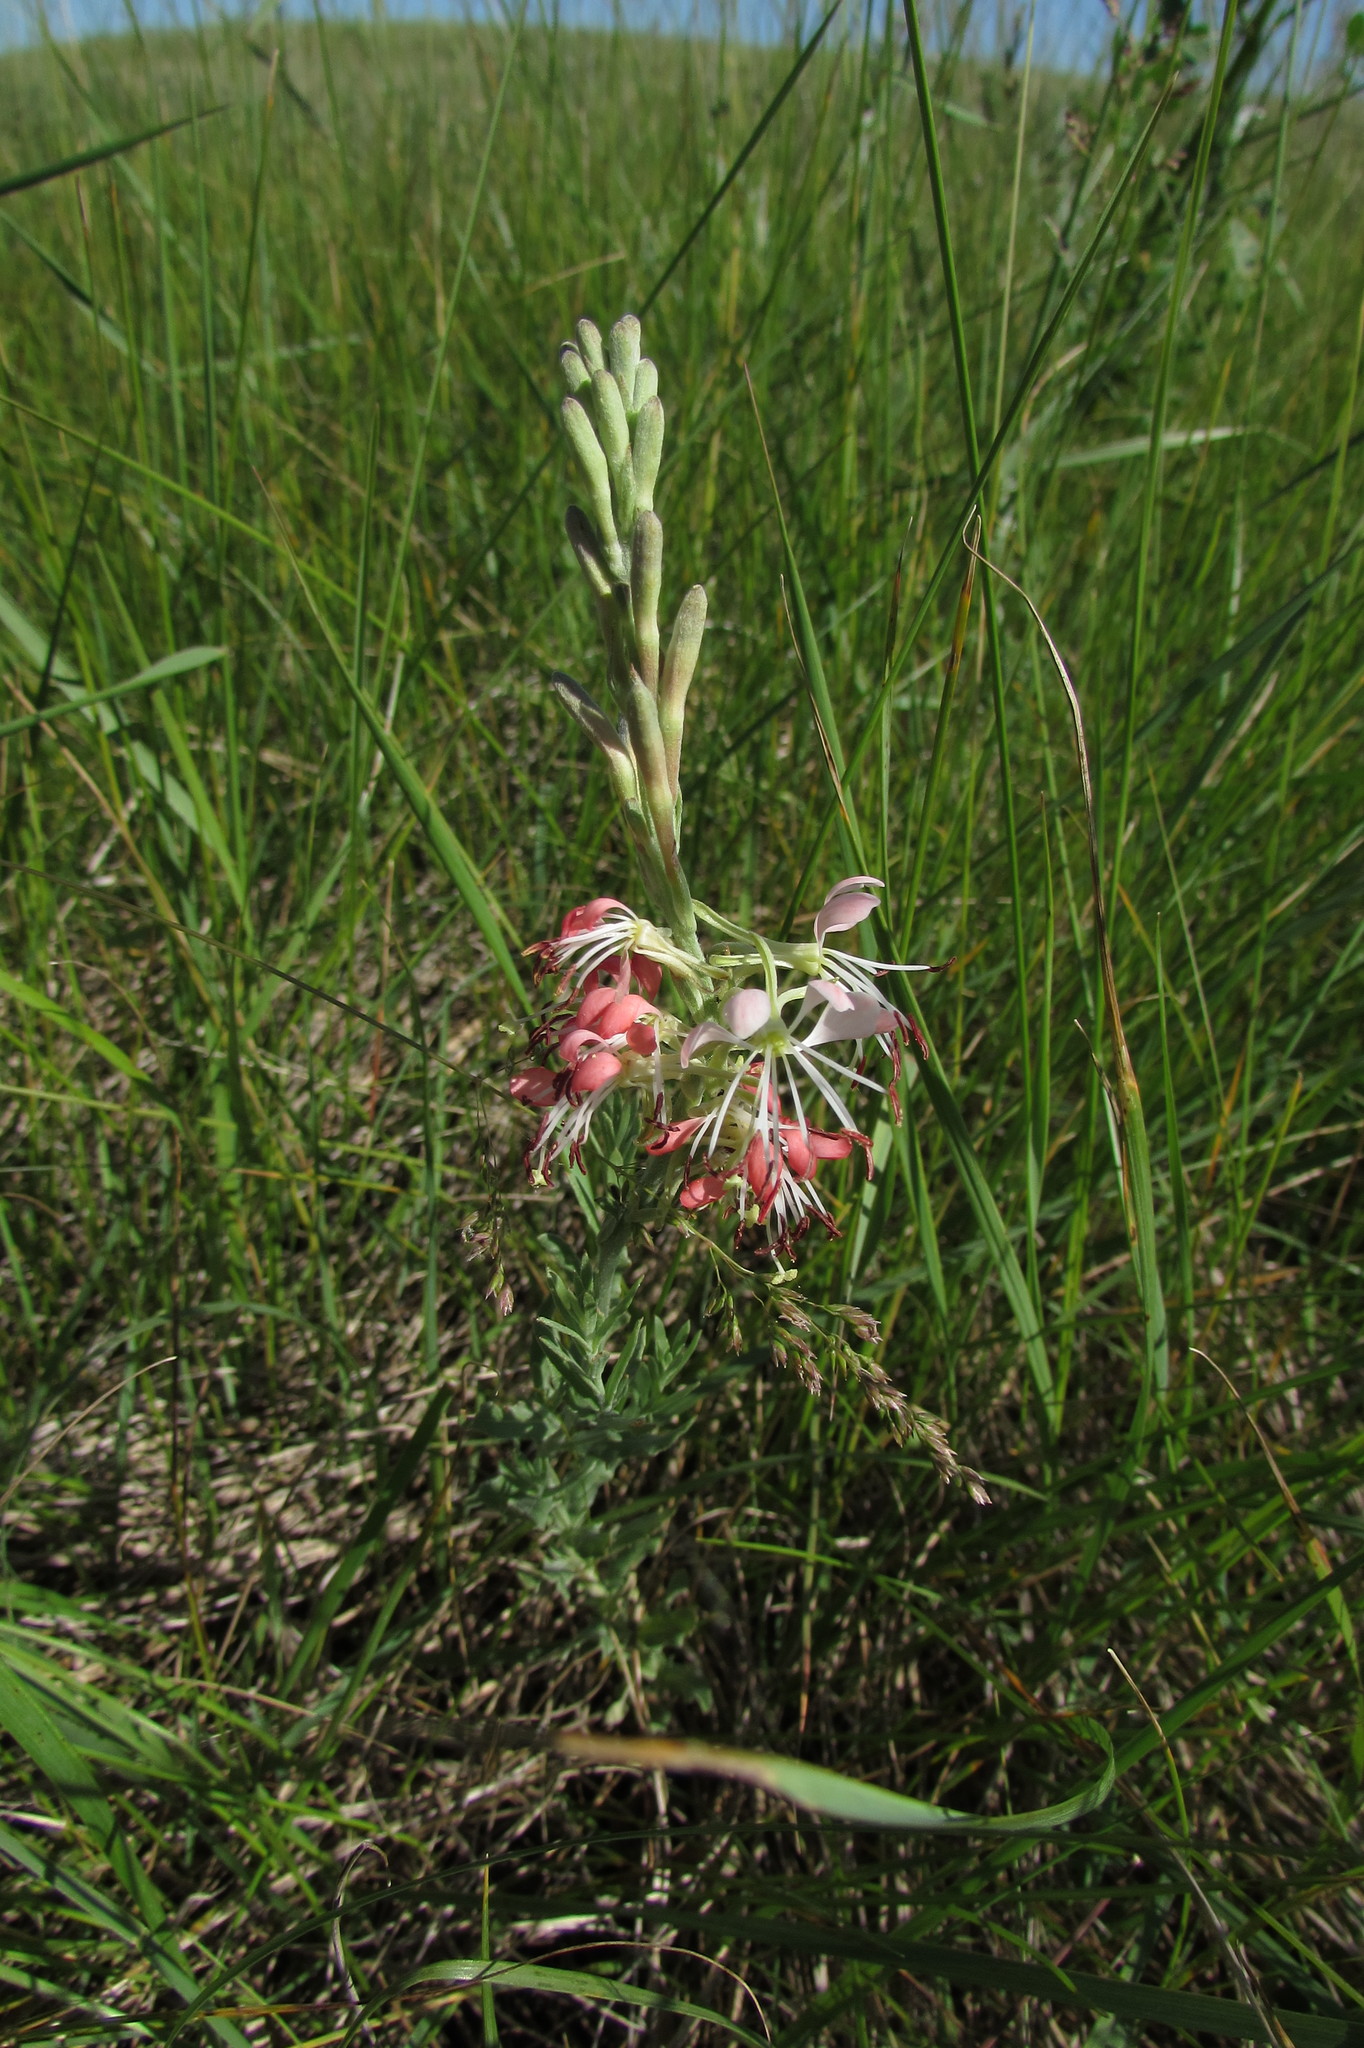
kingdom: Plantae
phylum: Tracheophyta
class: Magnoliopsida
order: Myrtales
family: Onagraceae
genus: Oenothera
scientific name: Oenothera suffrutescens
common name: Scarlet beeblossom
